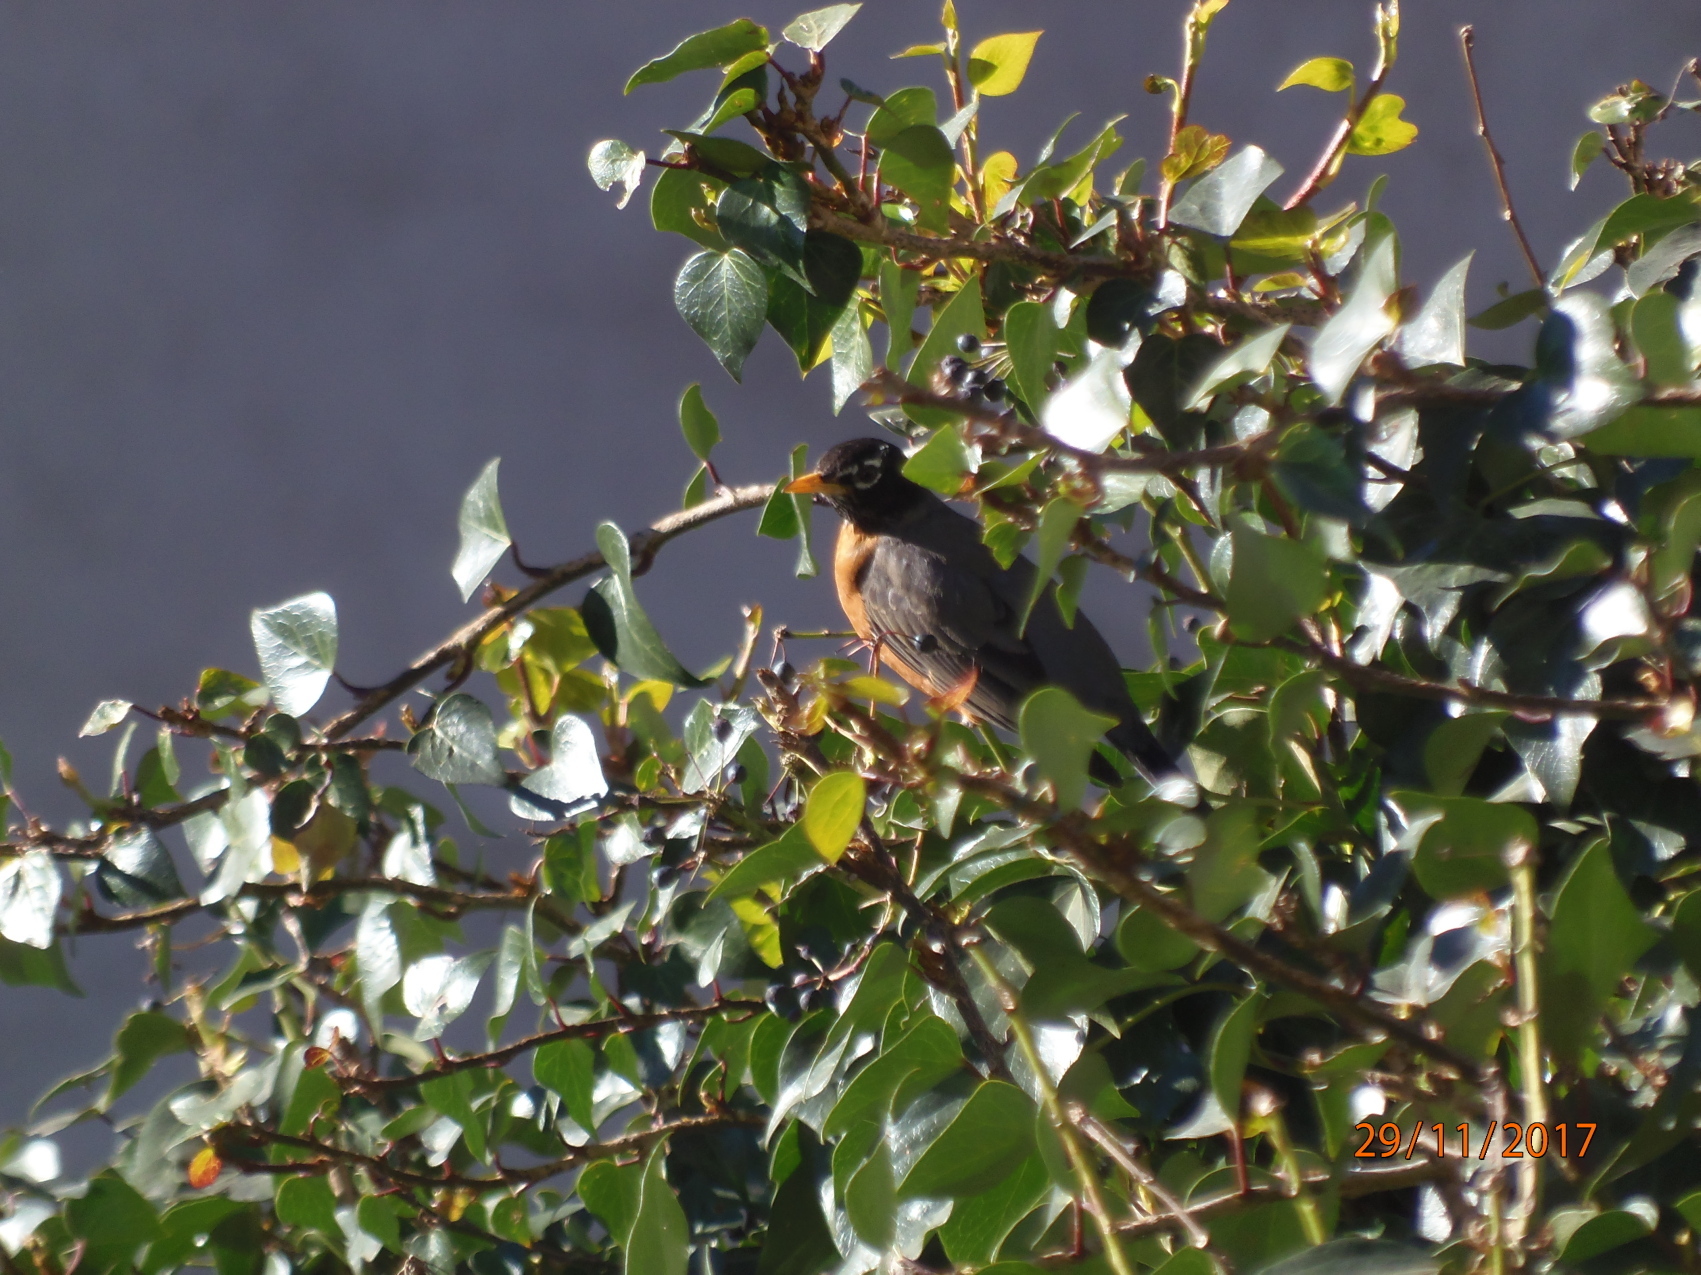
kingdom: Animalia
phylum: Chordata
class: Aves
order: Passeriformes
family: Turdidae
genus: Turdus
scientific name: Turdus migratorius
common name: American robin
